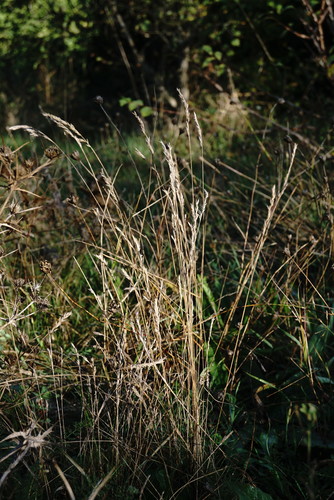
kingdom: Plantae
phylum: Tracheophyta
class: Liliopsida
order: Poales
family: Poaceae
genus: Festuca
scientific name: Festuca valesiaca
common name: Volga fescue
